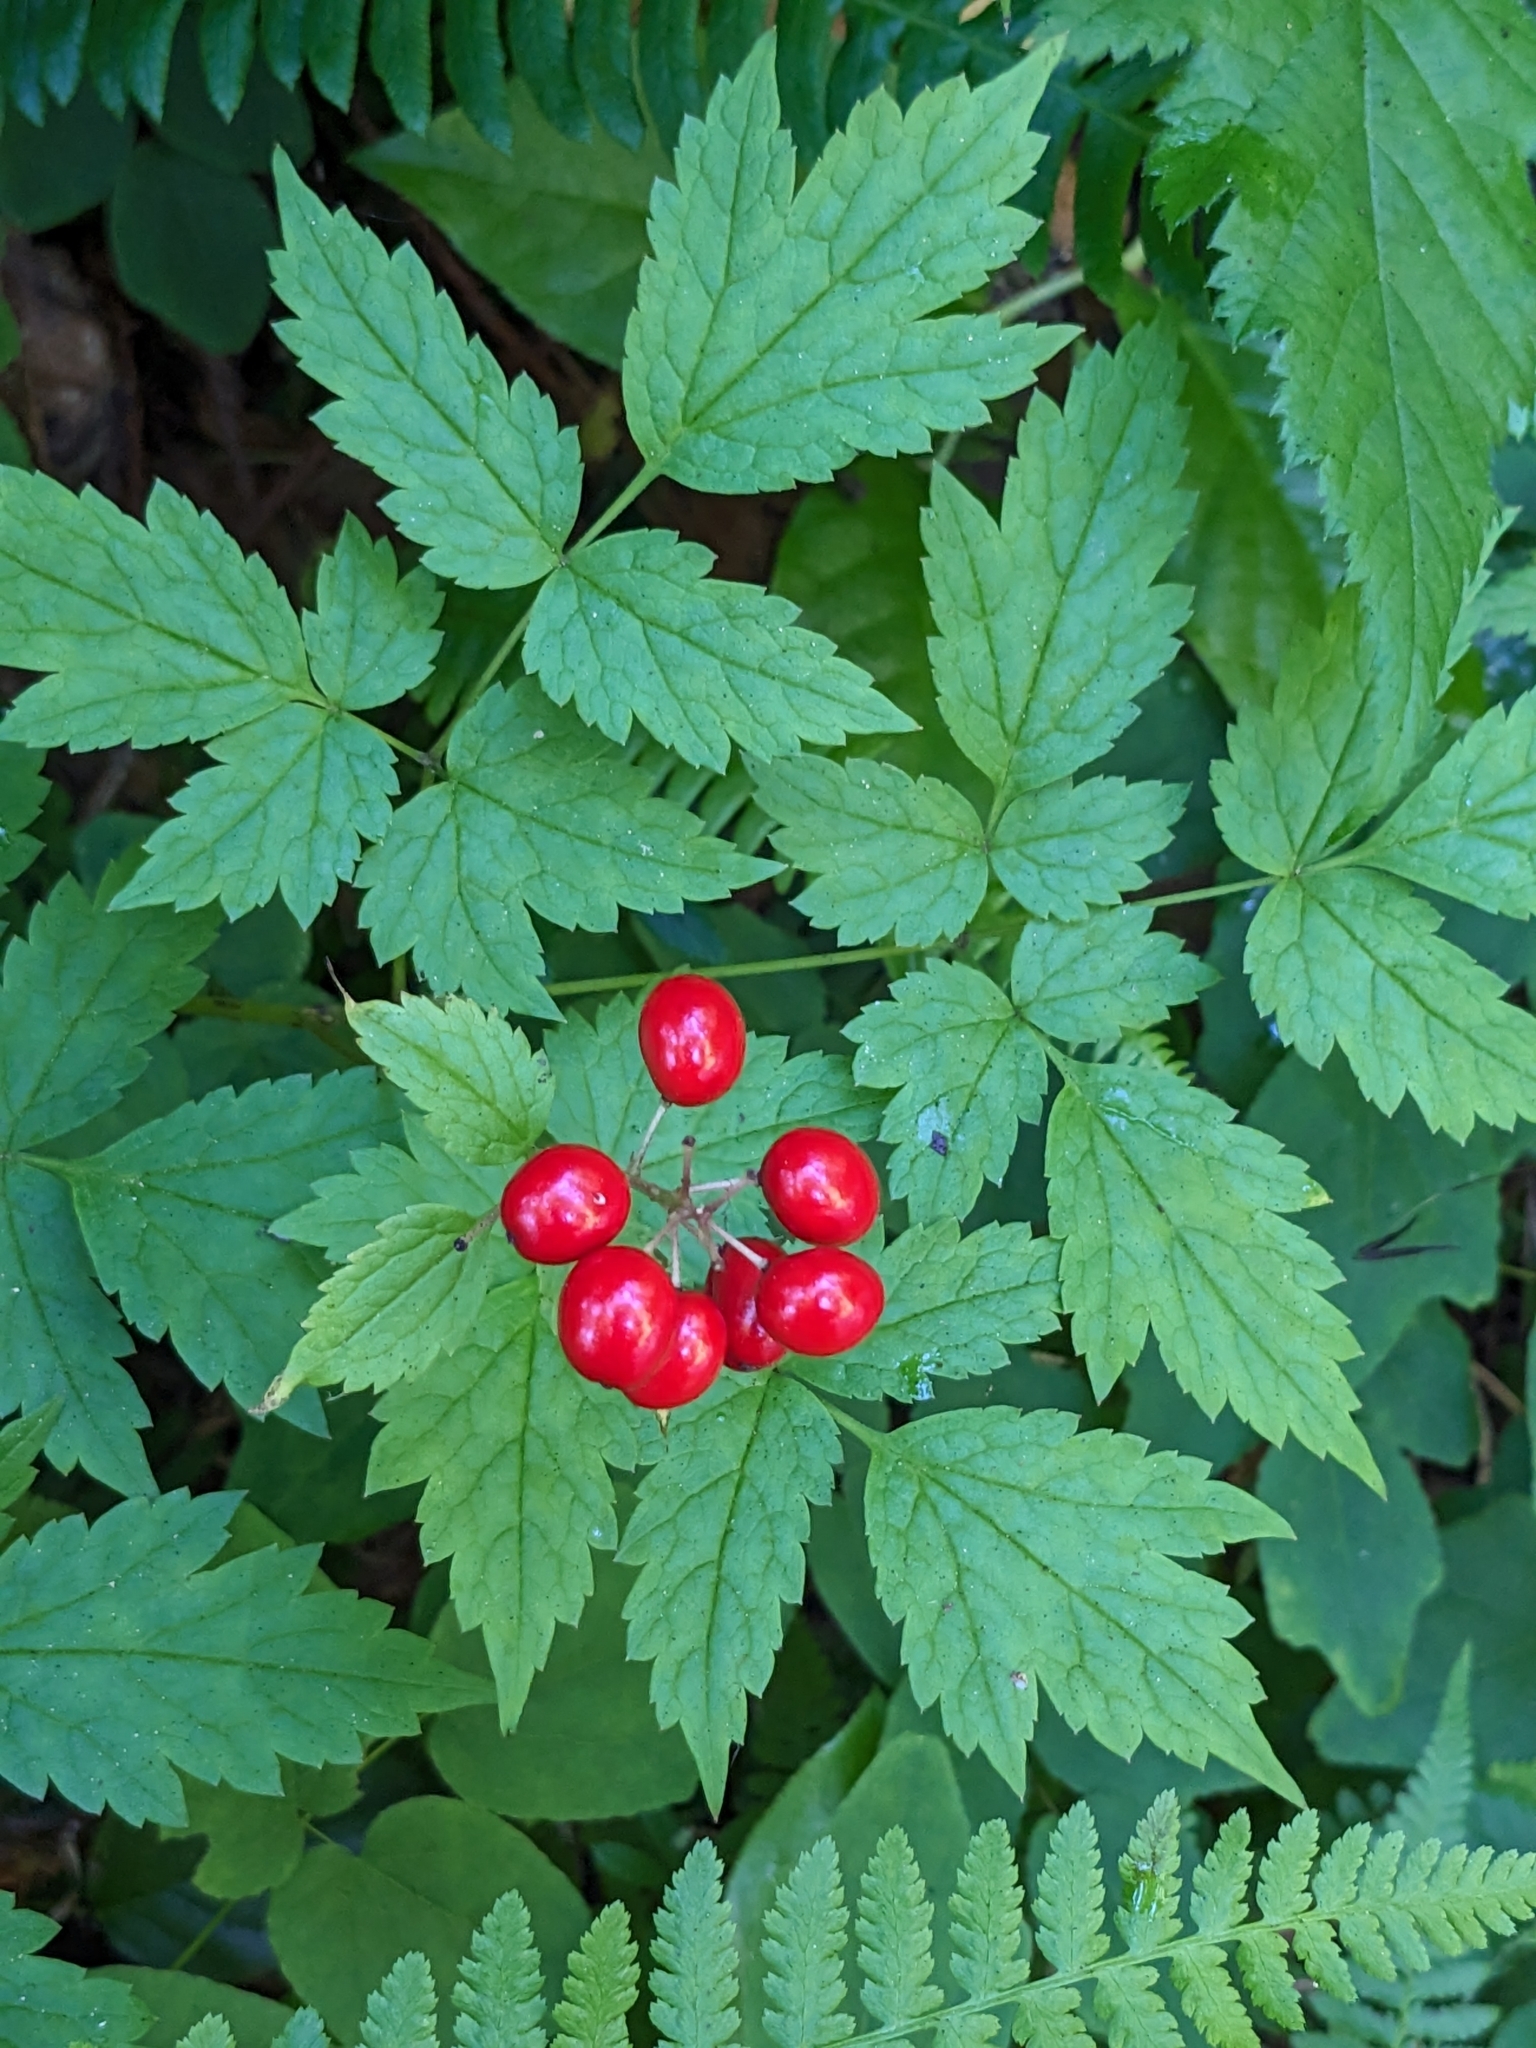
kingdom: Plantae
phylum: Tracheophyta
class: Magnoliopsida
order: Ranunculales
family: Ranunculaceae
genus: Actaea
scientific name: Actaea rubra
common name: Red baneberry
